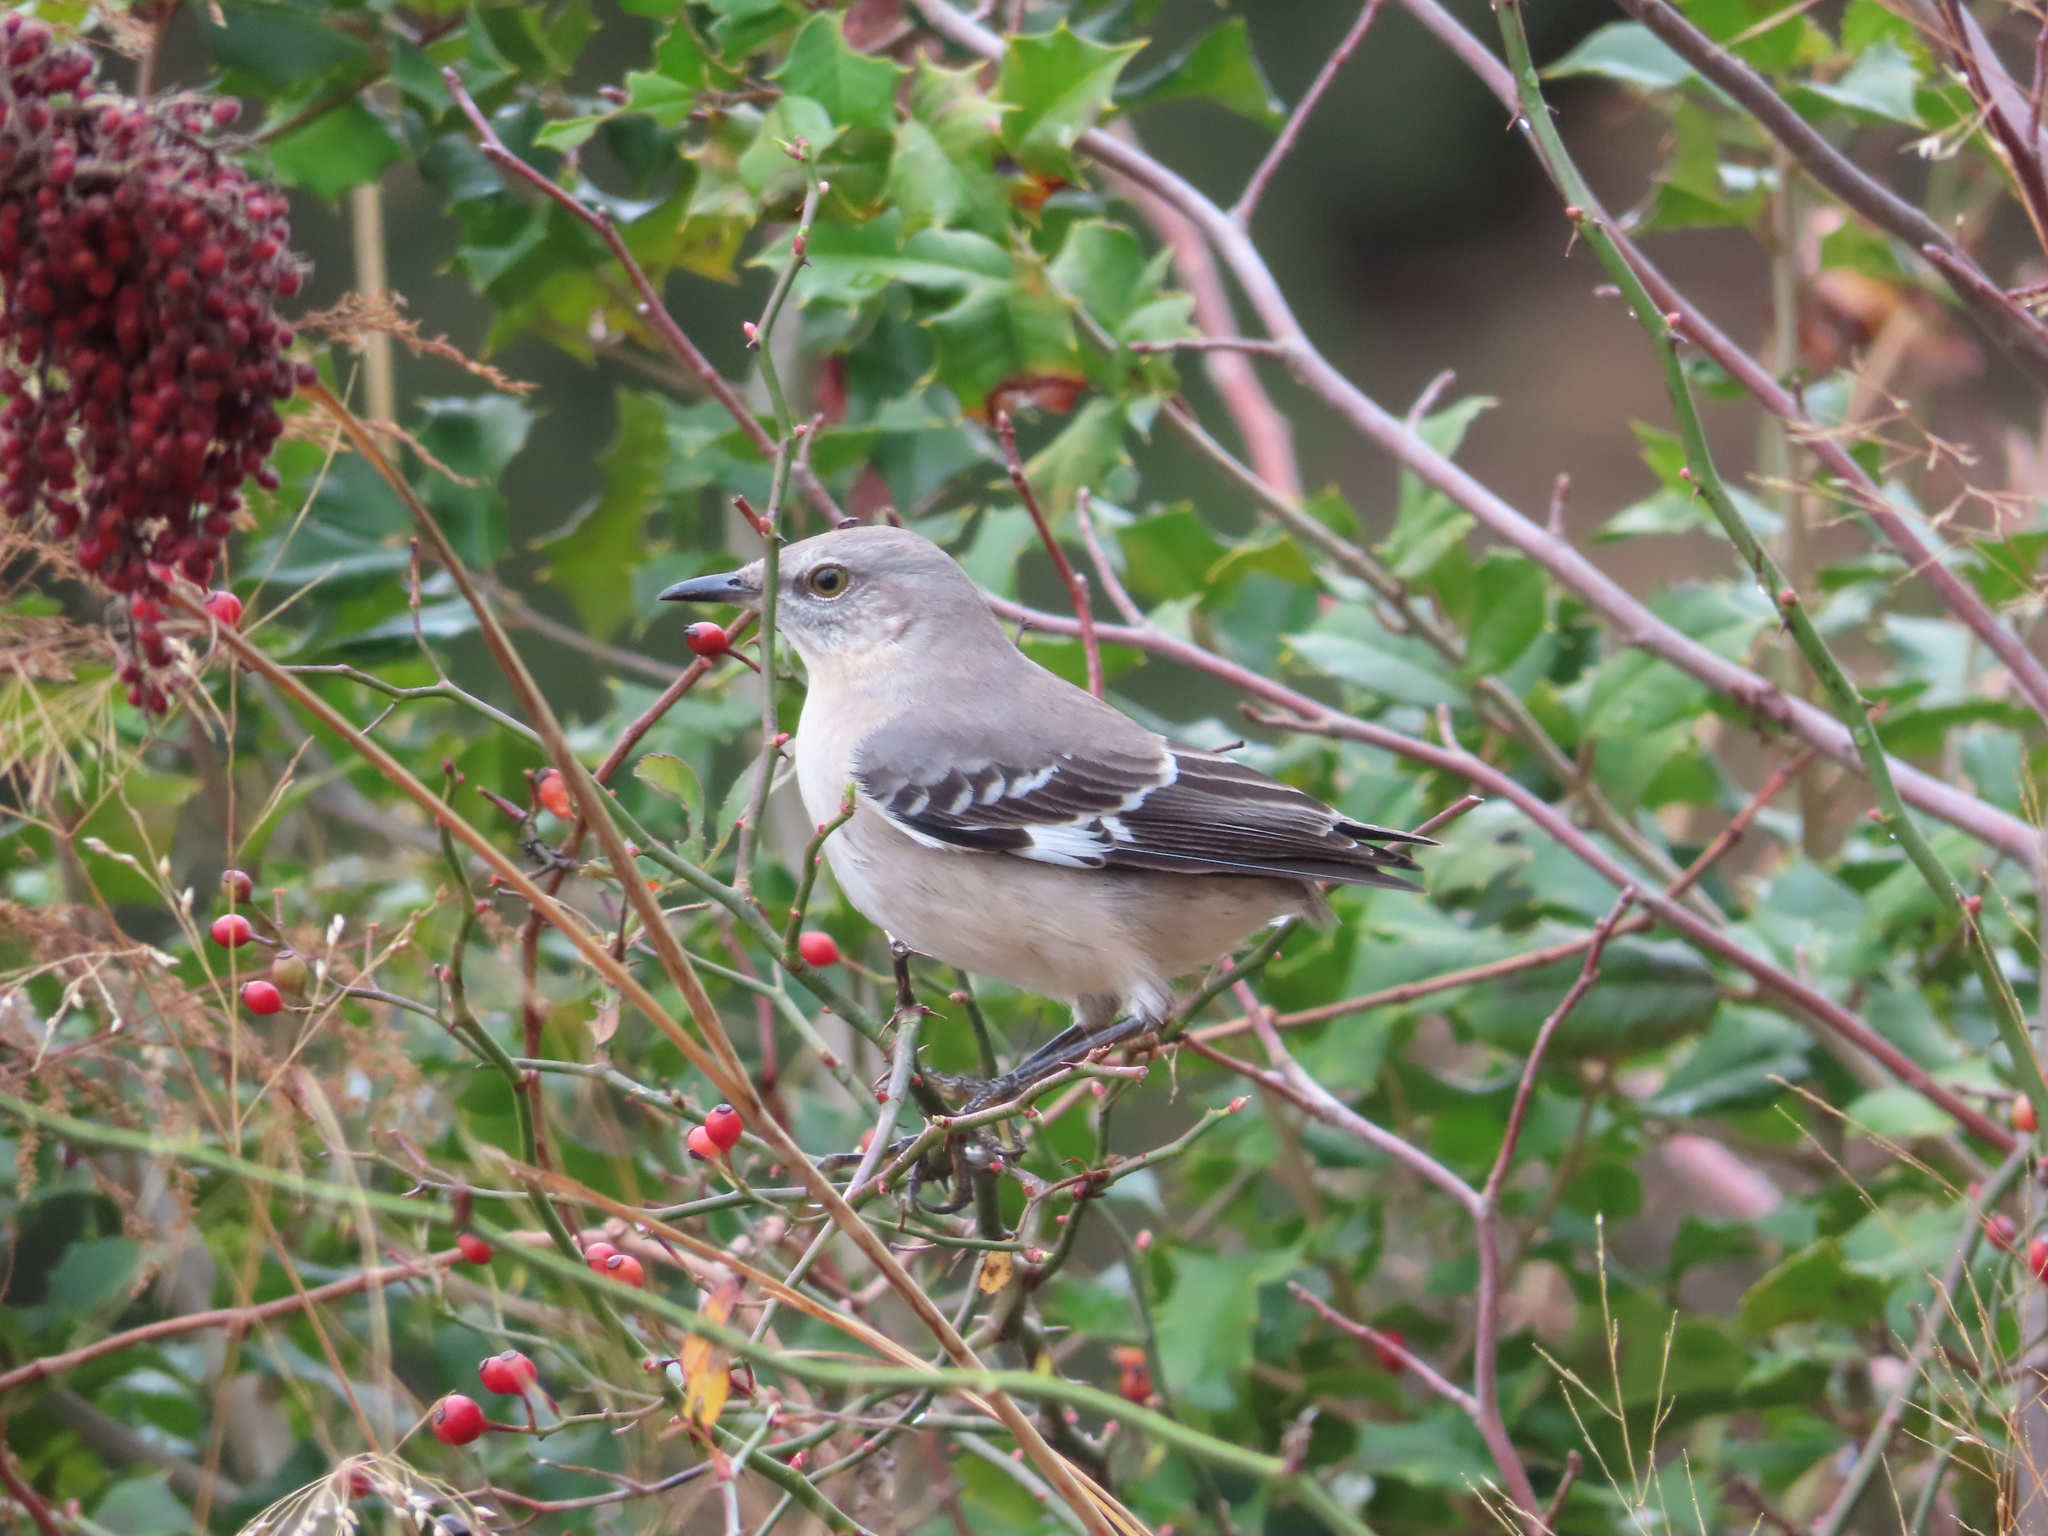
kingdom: Animalia
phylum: Chordata
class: Aves
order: Passeriformes
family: Mimidae
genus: Mimus
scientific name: Mimus polyglottos
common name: Northern mockingbird
